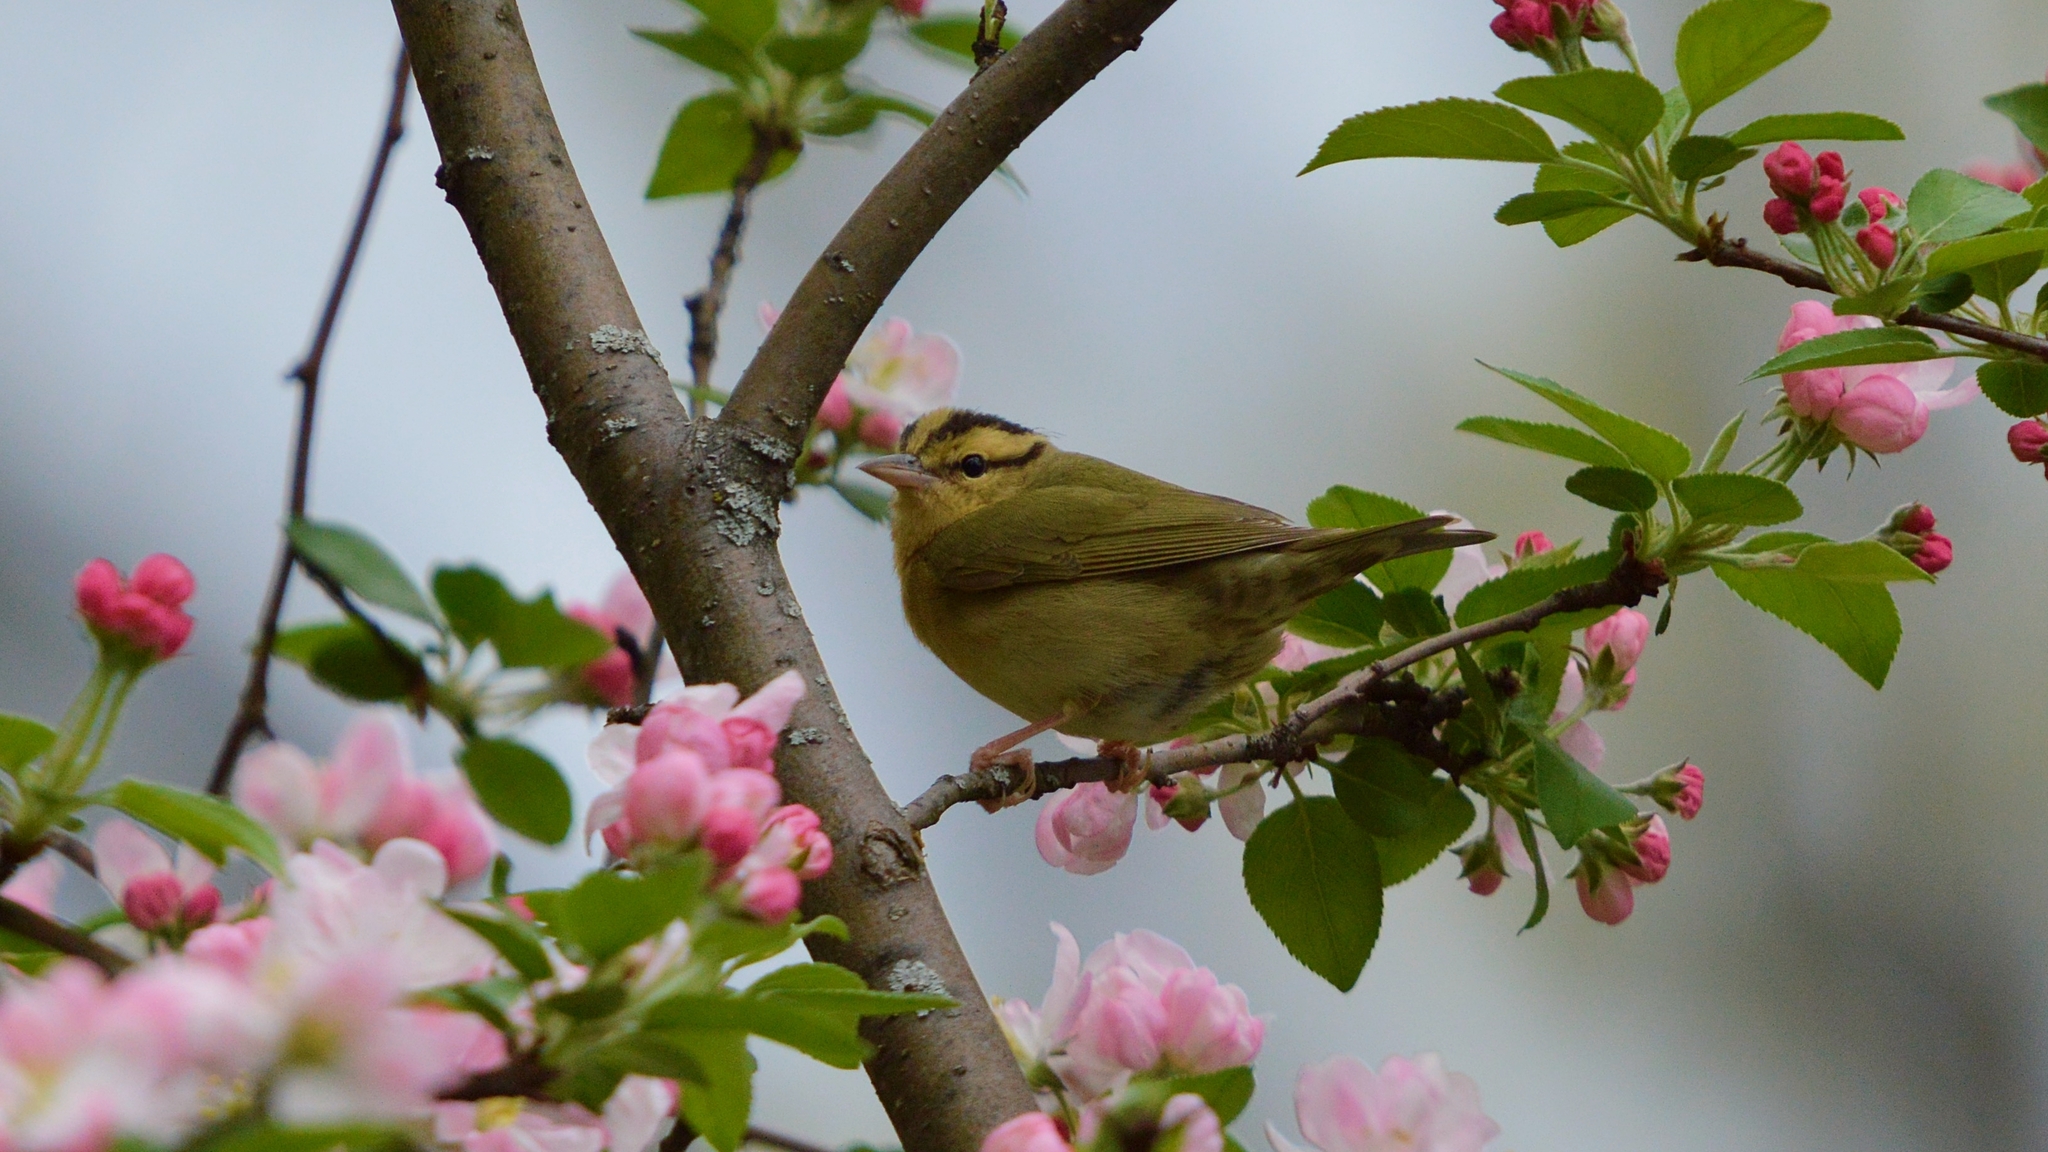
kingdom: Animalia
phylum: Chordata
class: Aves
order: Passeriformes
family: Parulidae
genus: Helmitheros
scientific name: Helmitheros vermivorum
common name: Worm-eating warbler
